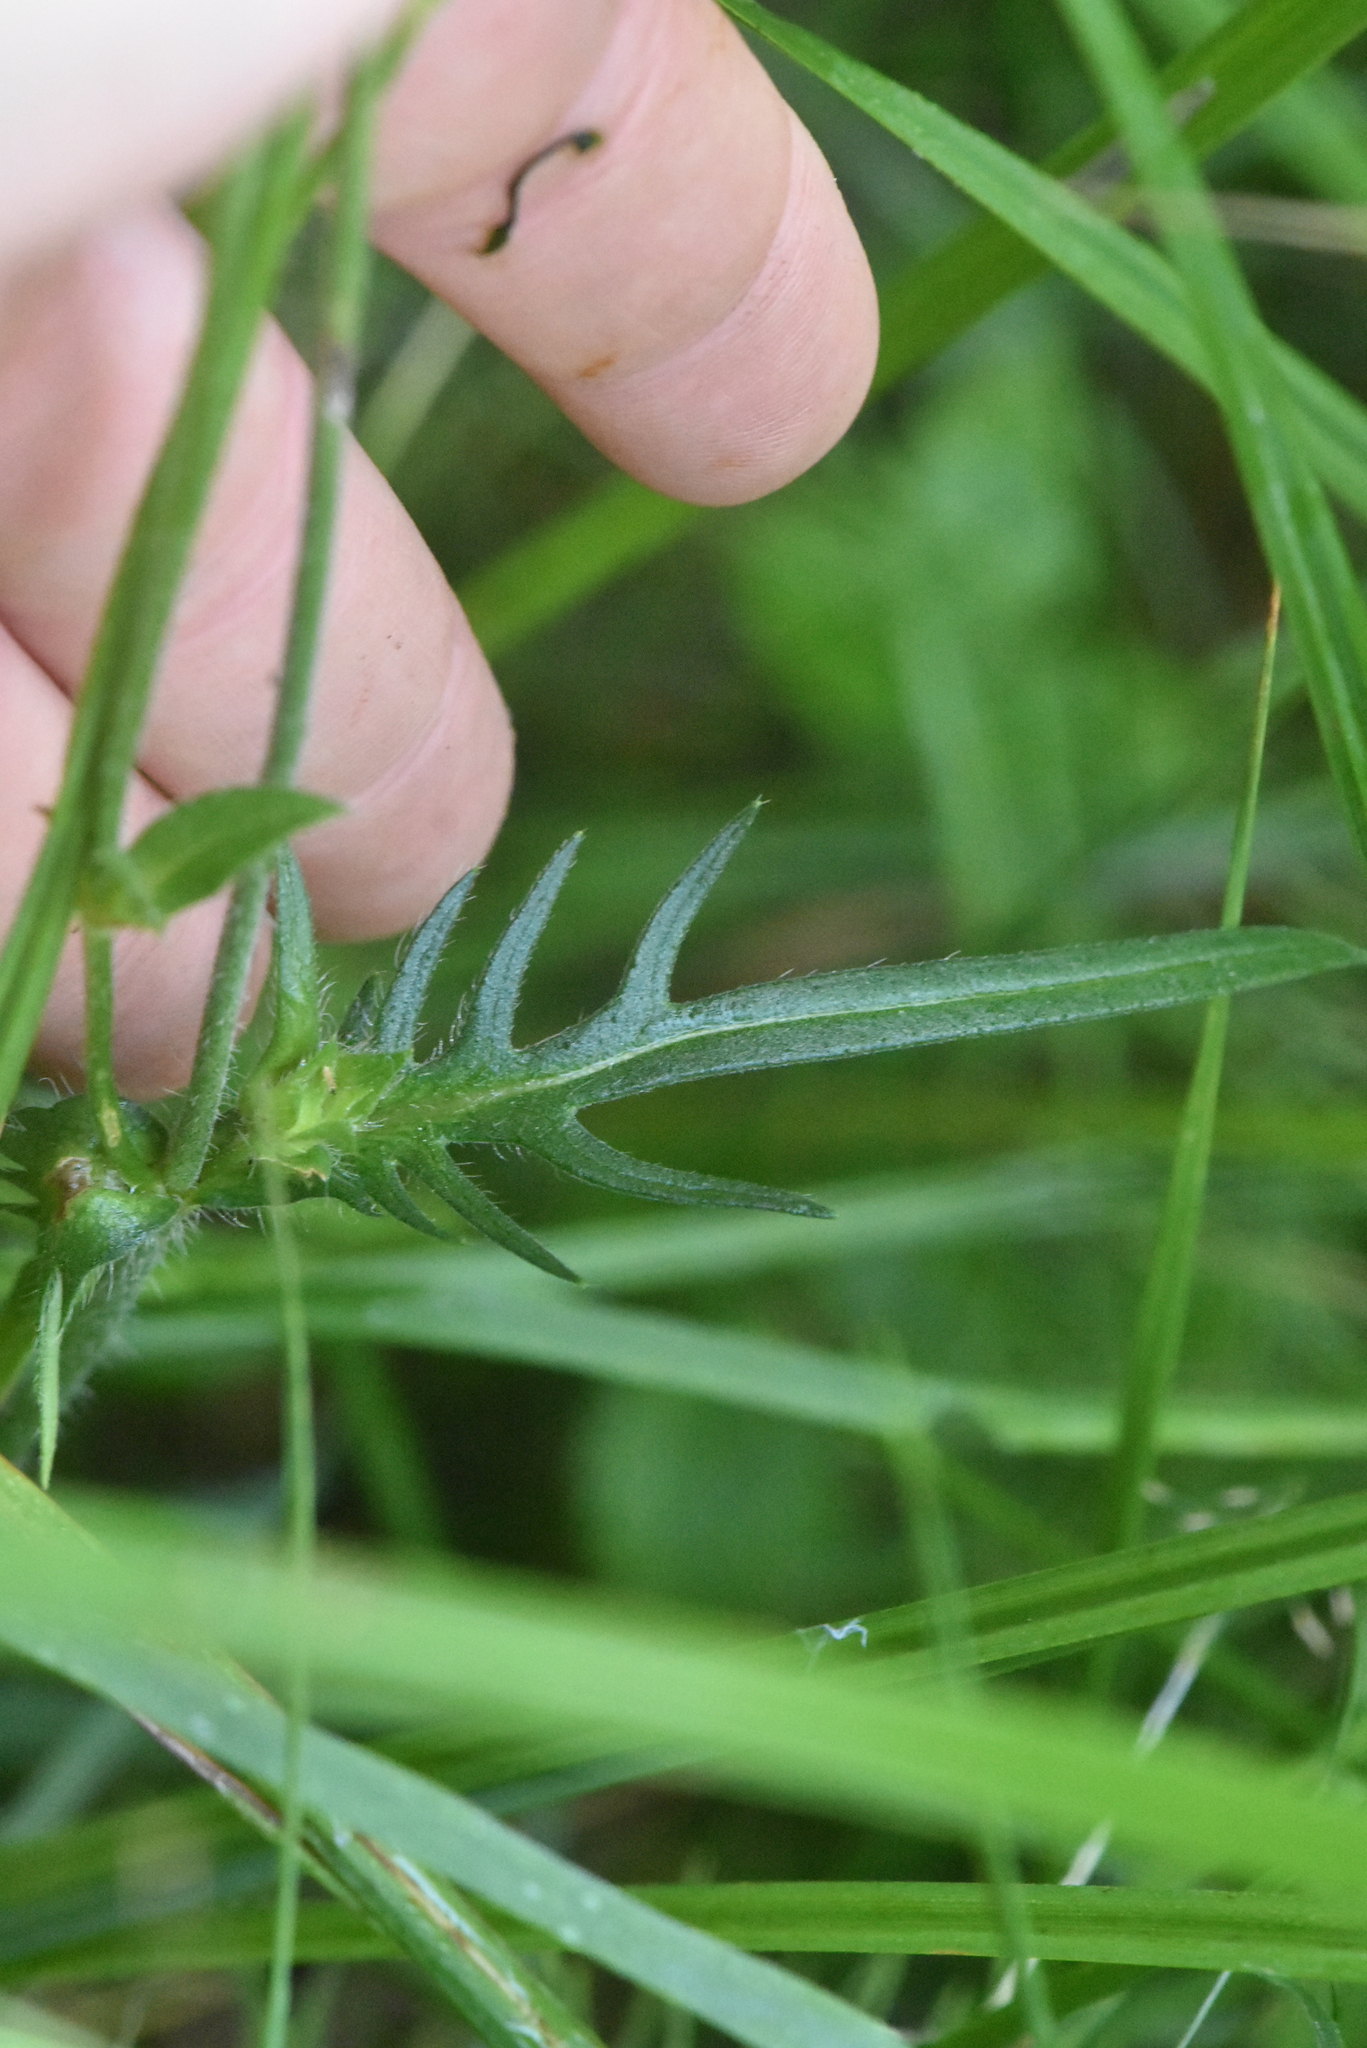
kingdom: Plantae
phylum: Tracheophyta
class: Magnoliopsida
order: Dipsacales
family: Caprifoliaceae
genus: Knautia
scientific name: Knautia arvensis
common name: Field scabiosa
